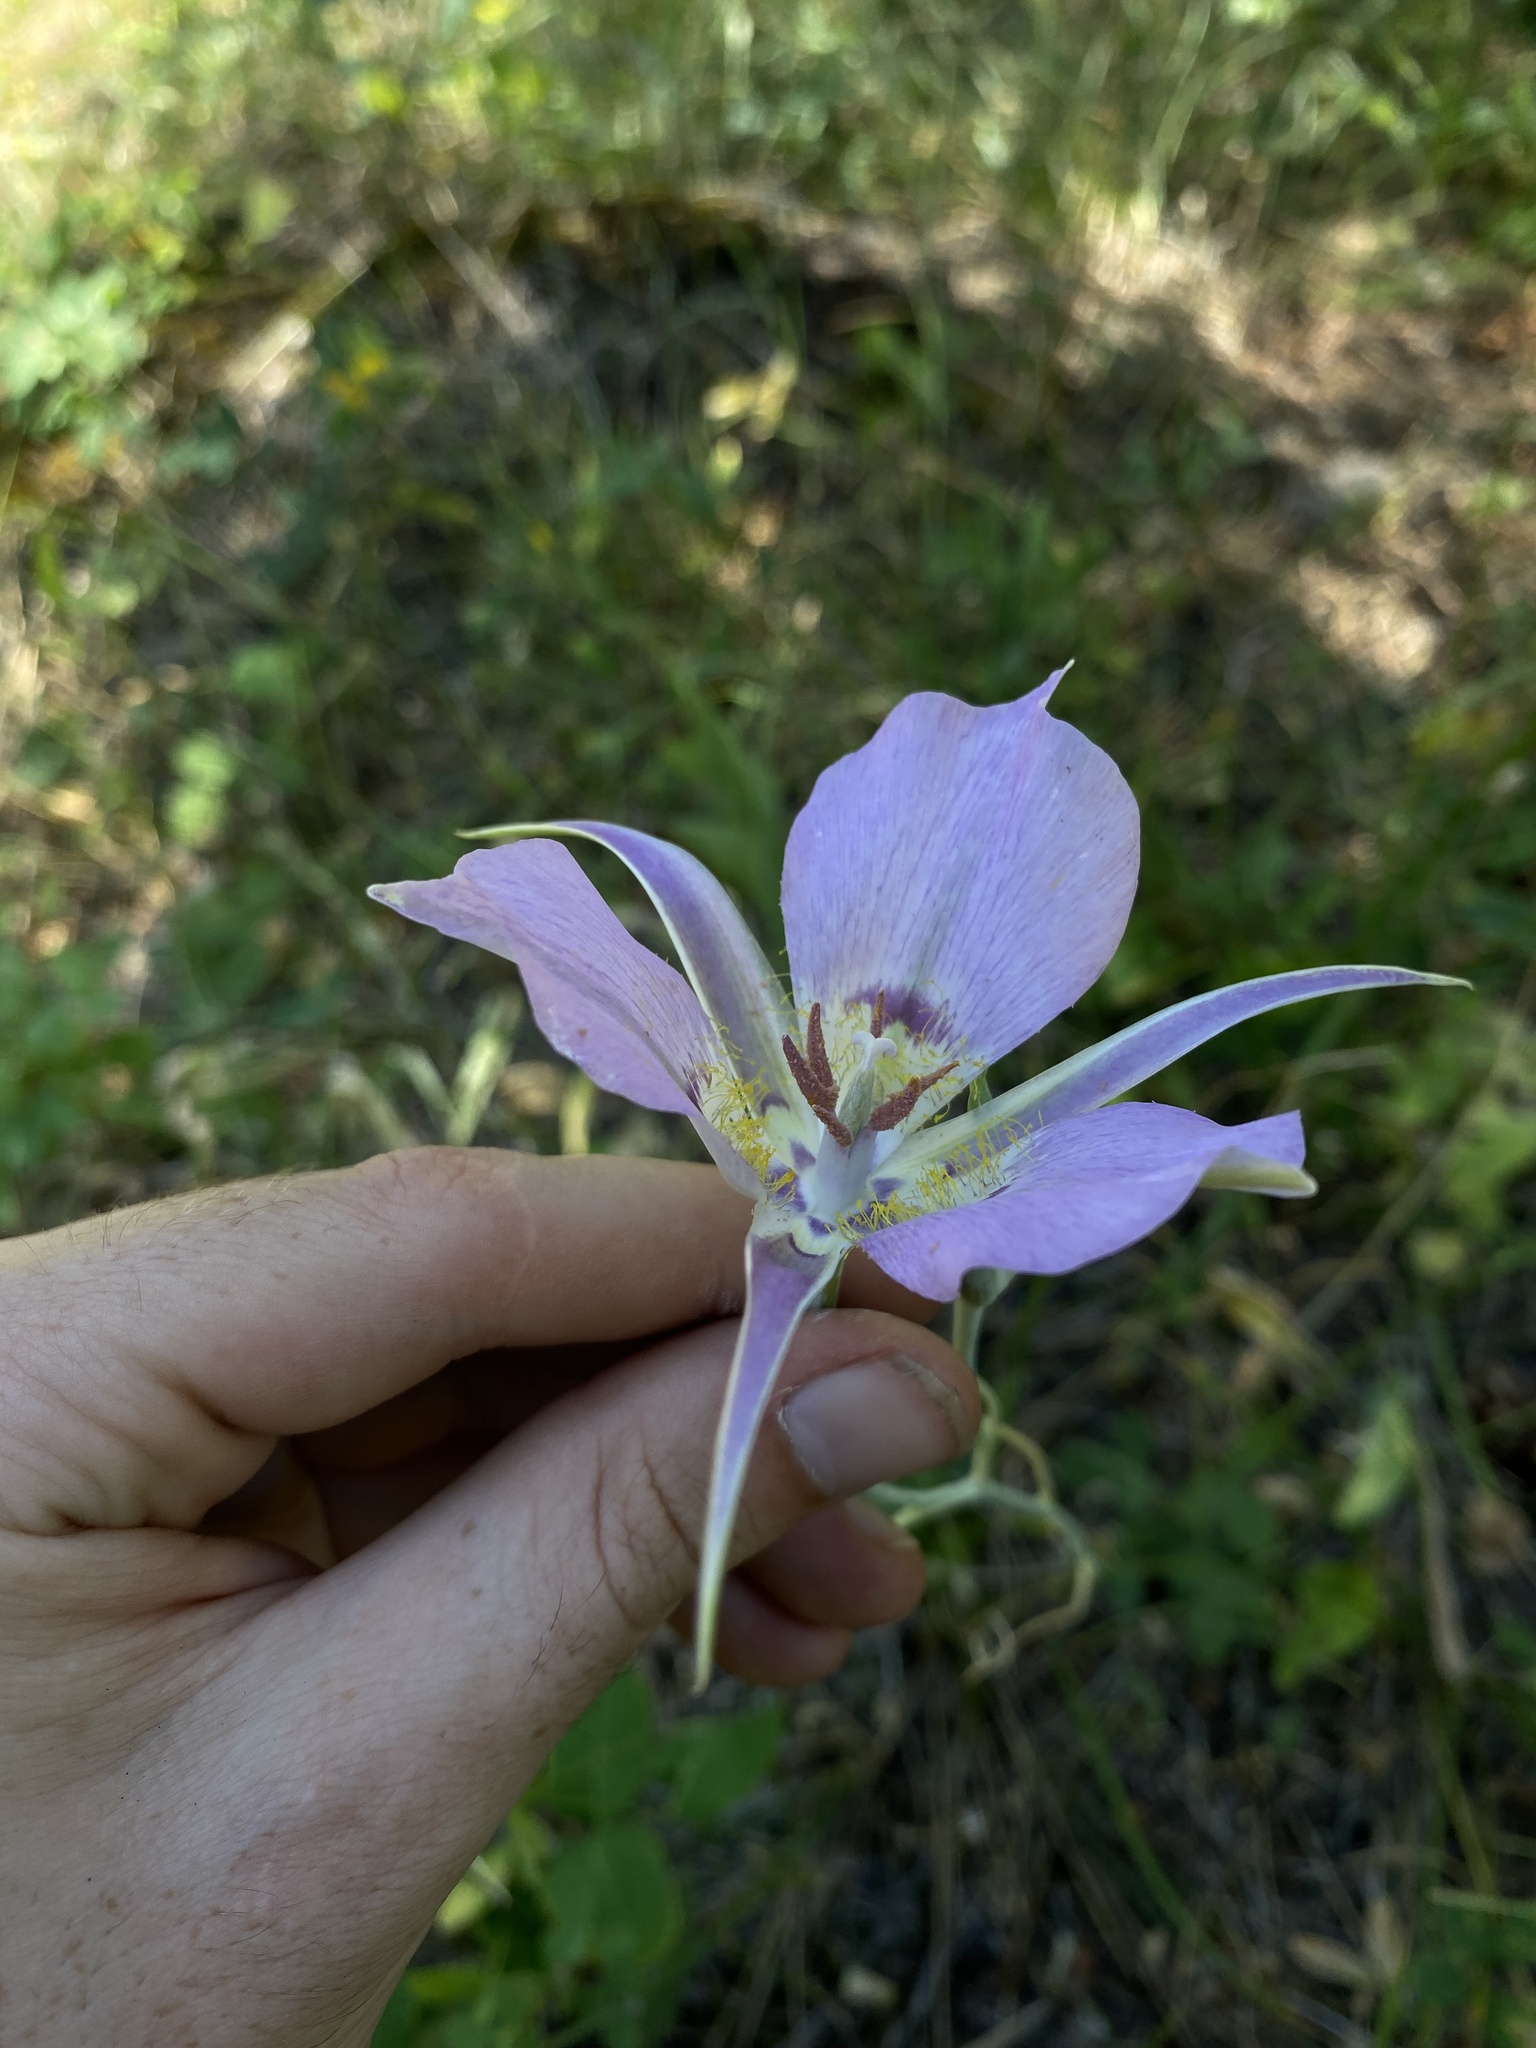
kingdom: Plantae
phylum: Tracheophyta
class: Liliopsida
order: Liliales
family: Liliaceae
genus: Calochortus
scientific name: Calochortus macrocarpus
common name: Green-band mariposa lily
